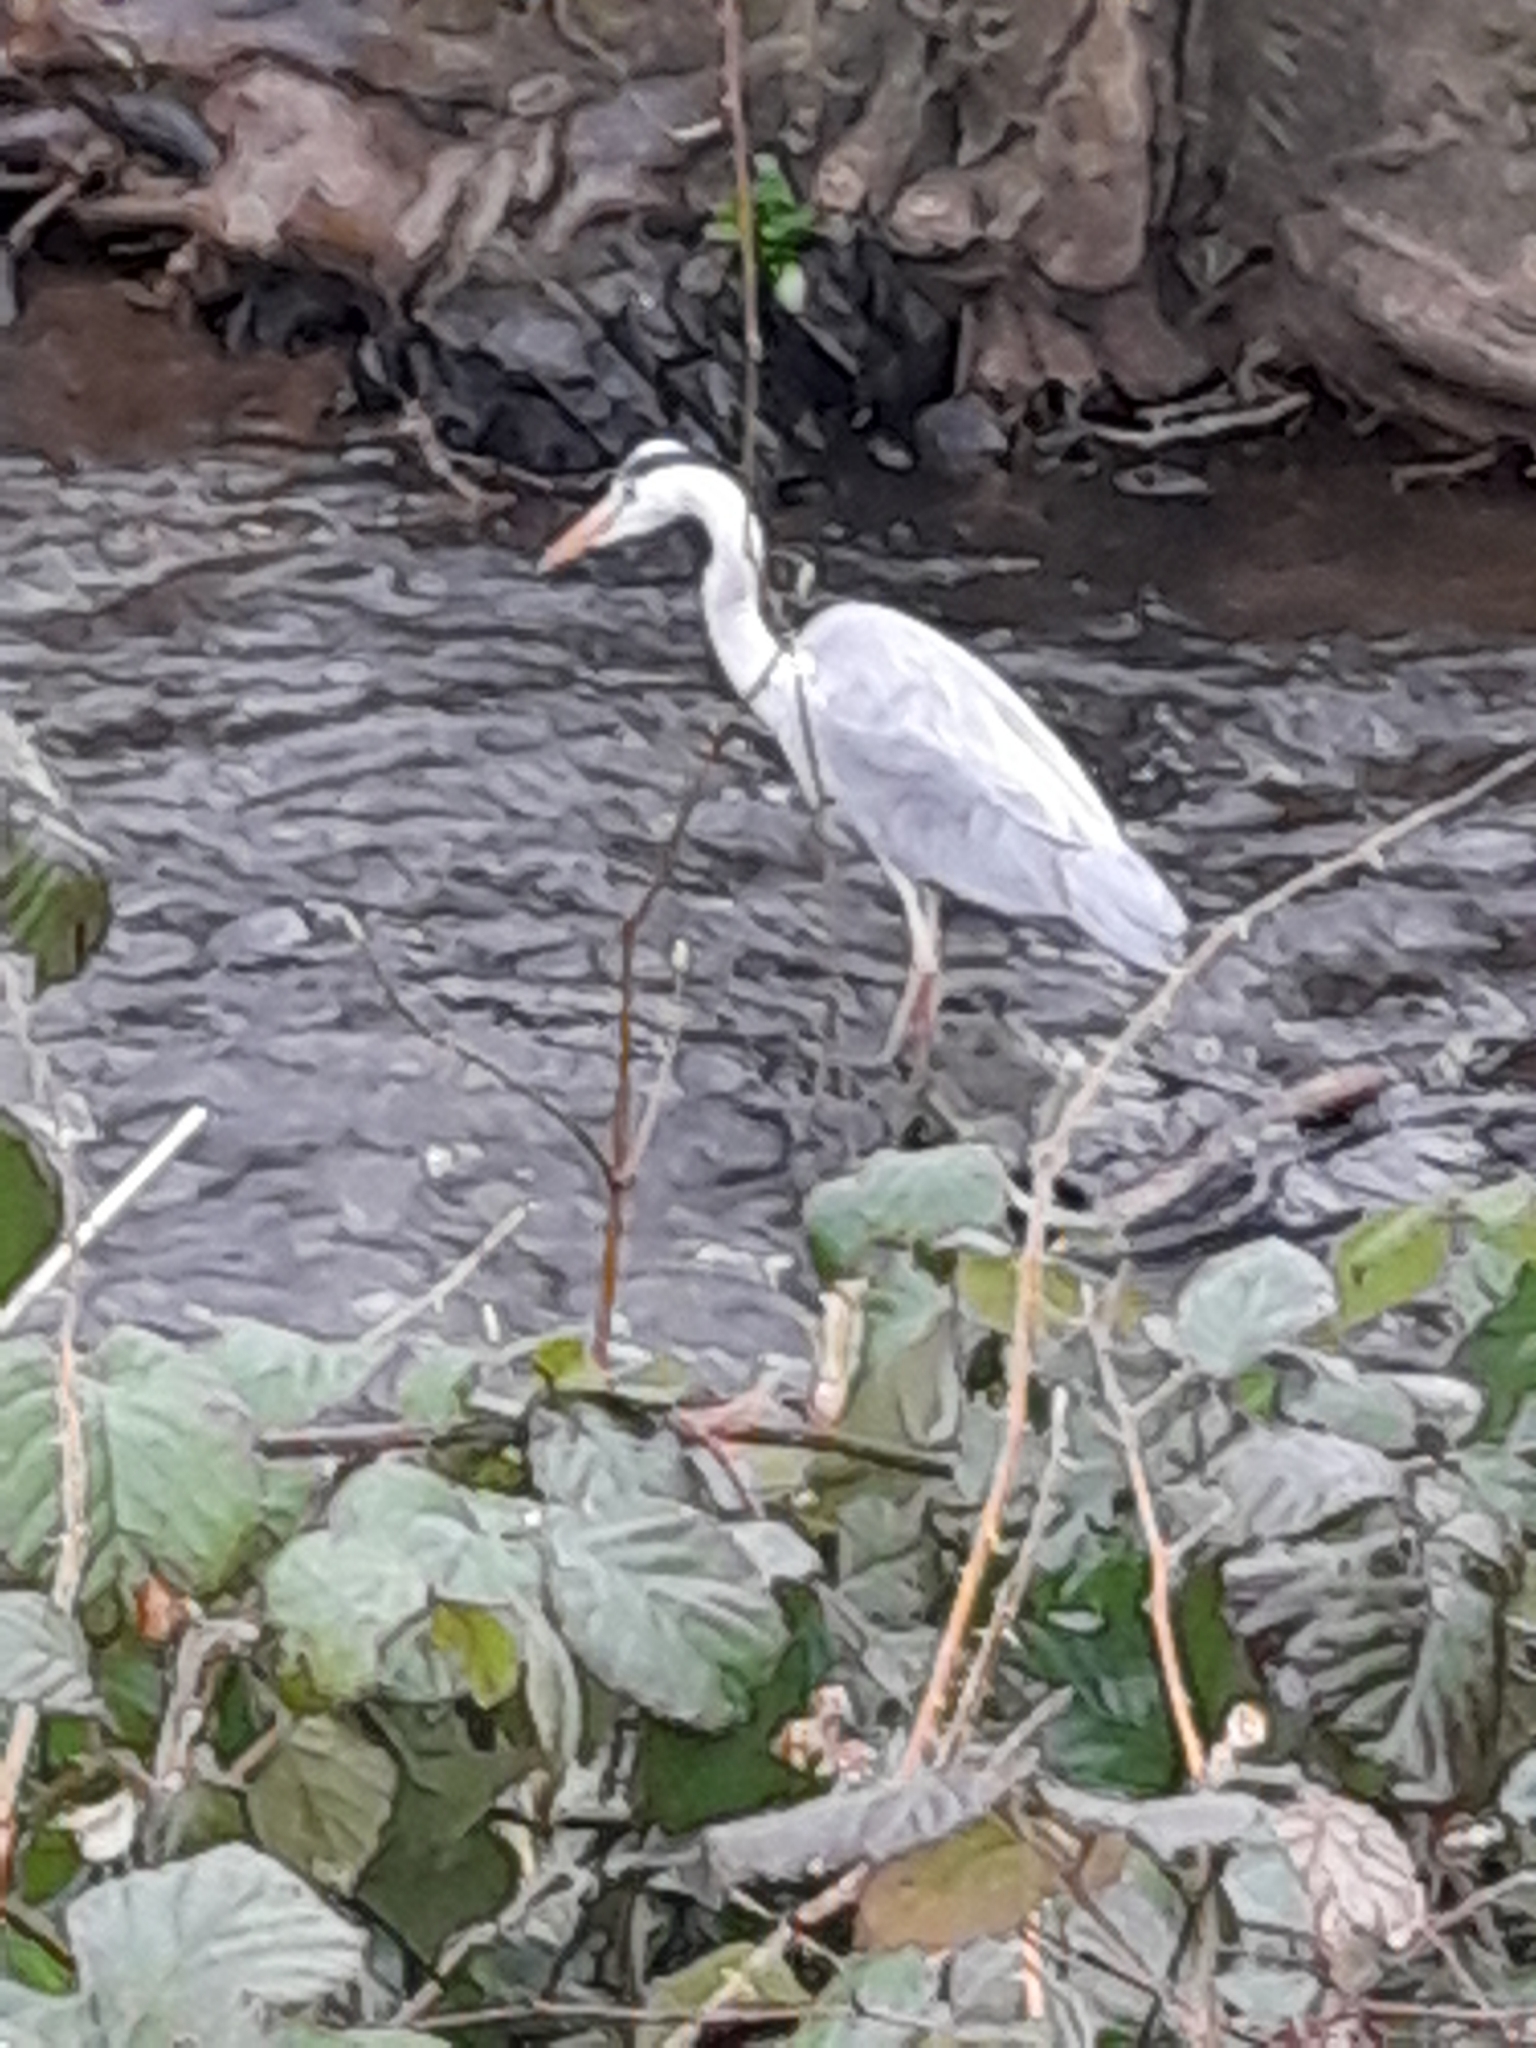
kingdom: Animalia
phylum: Chordata
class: Aves
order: Pelecaniformes
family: Ardeidae
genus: Ardea
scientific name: Ardea cinerea
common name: Grey heron
